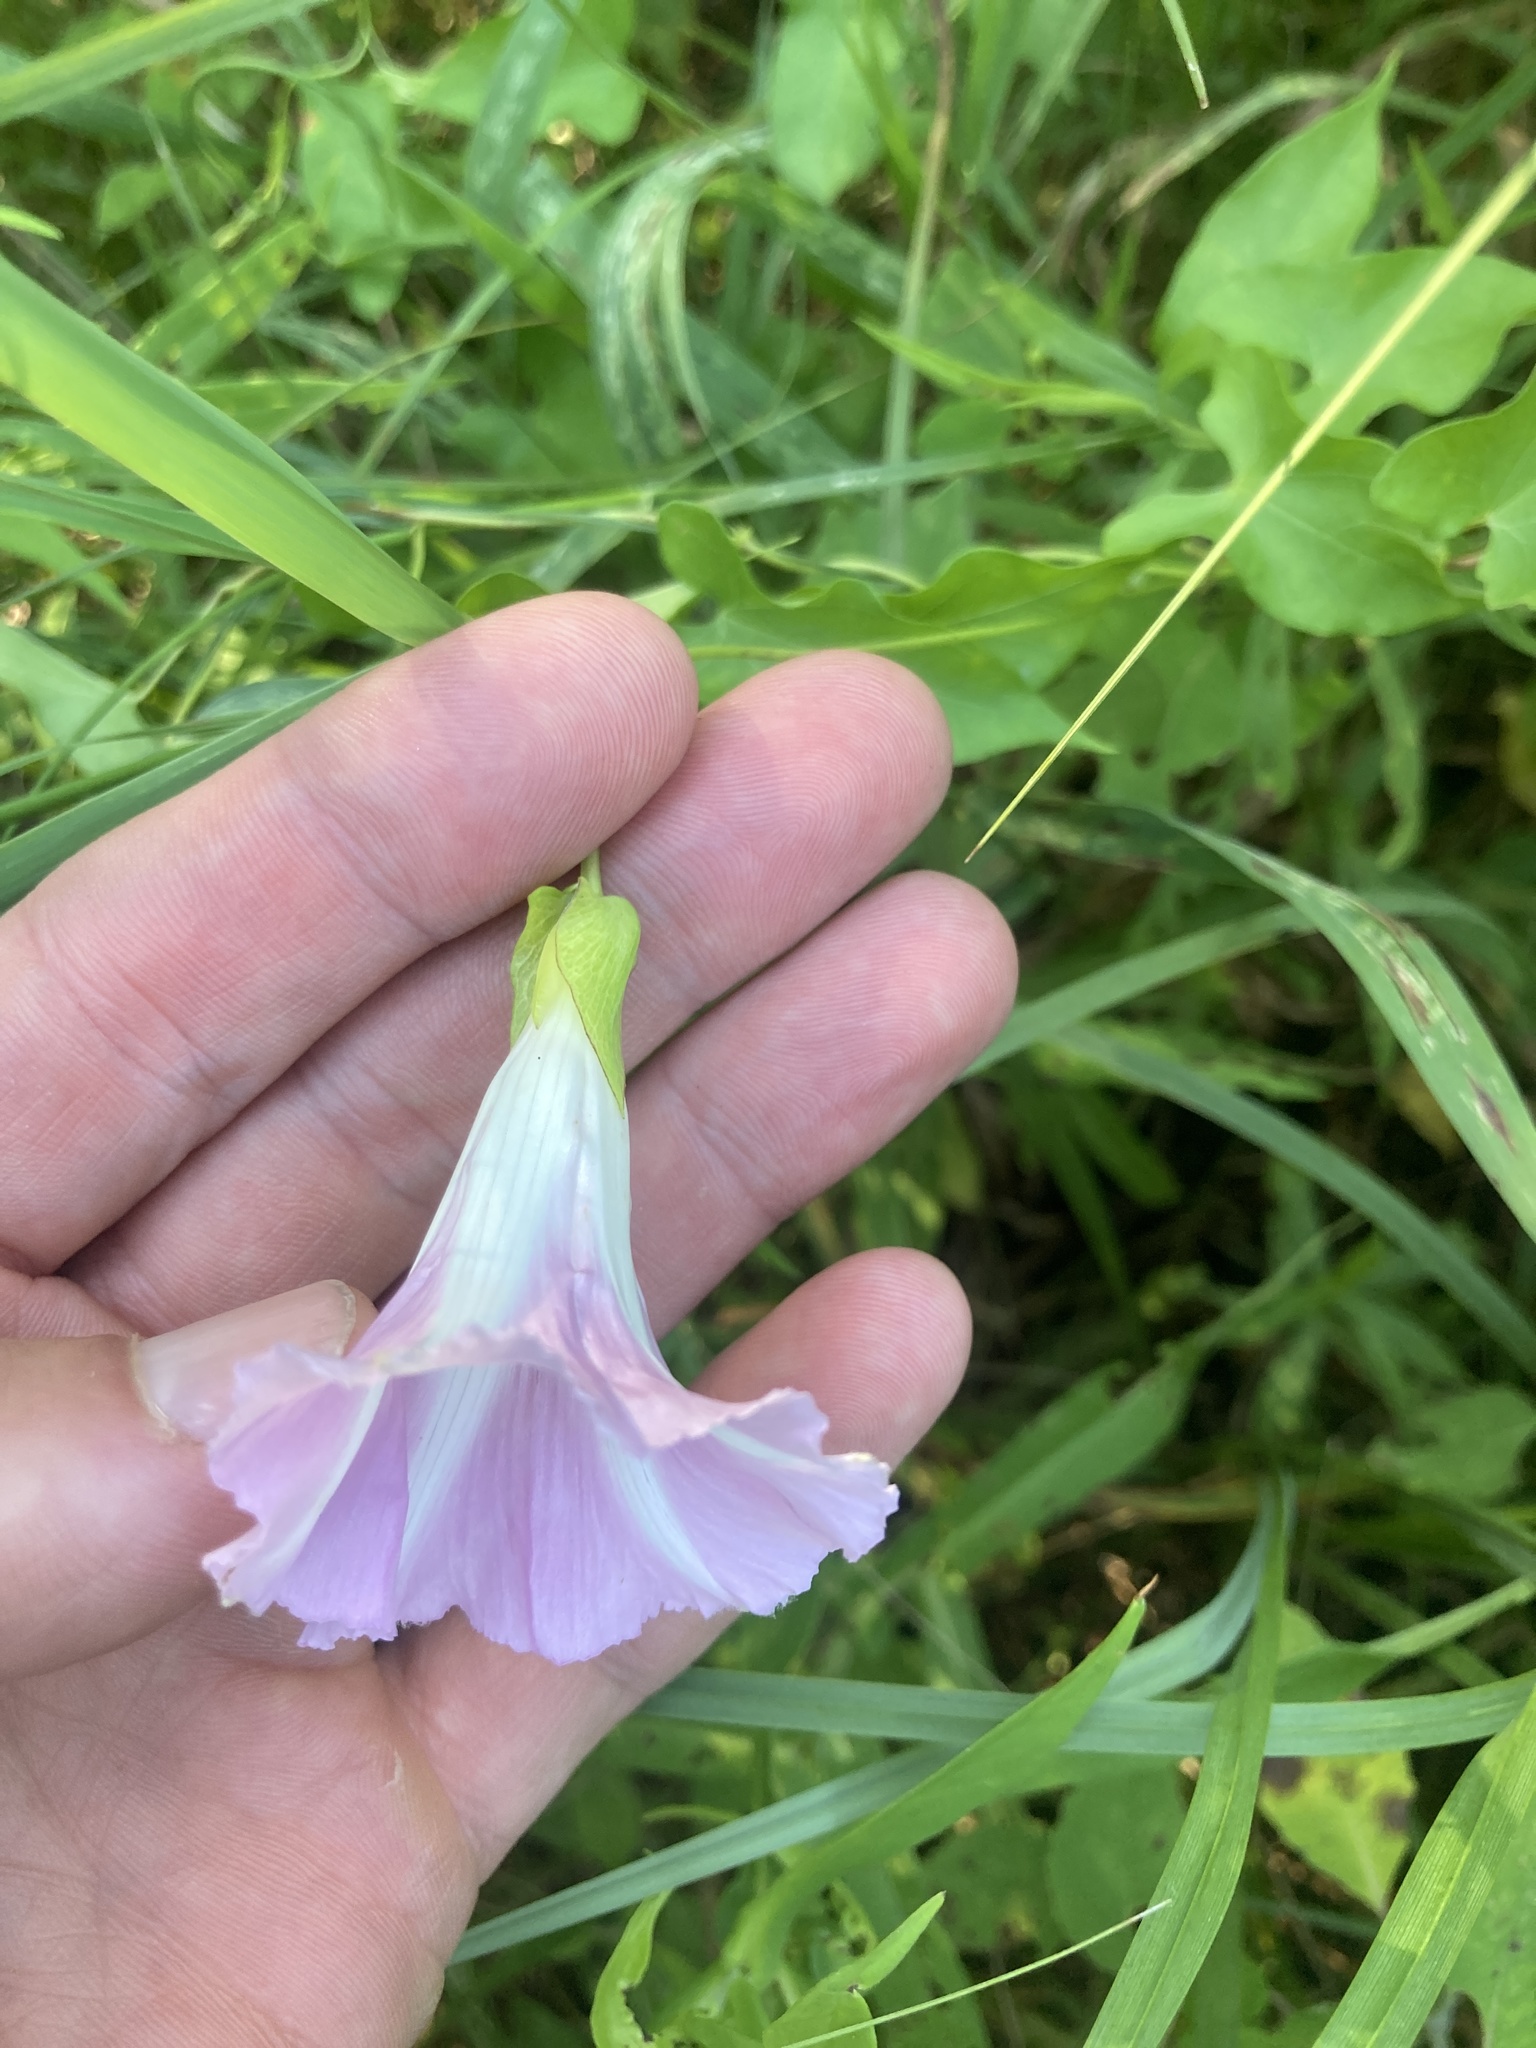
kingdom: Plantae
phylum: Tracheophyta
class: Magnoliopsida
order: Solanales
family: Convolvulaceae
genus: Calystegia
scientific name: Calystegia sepium
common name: Hedge bindweed
